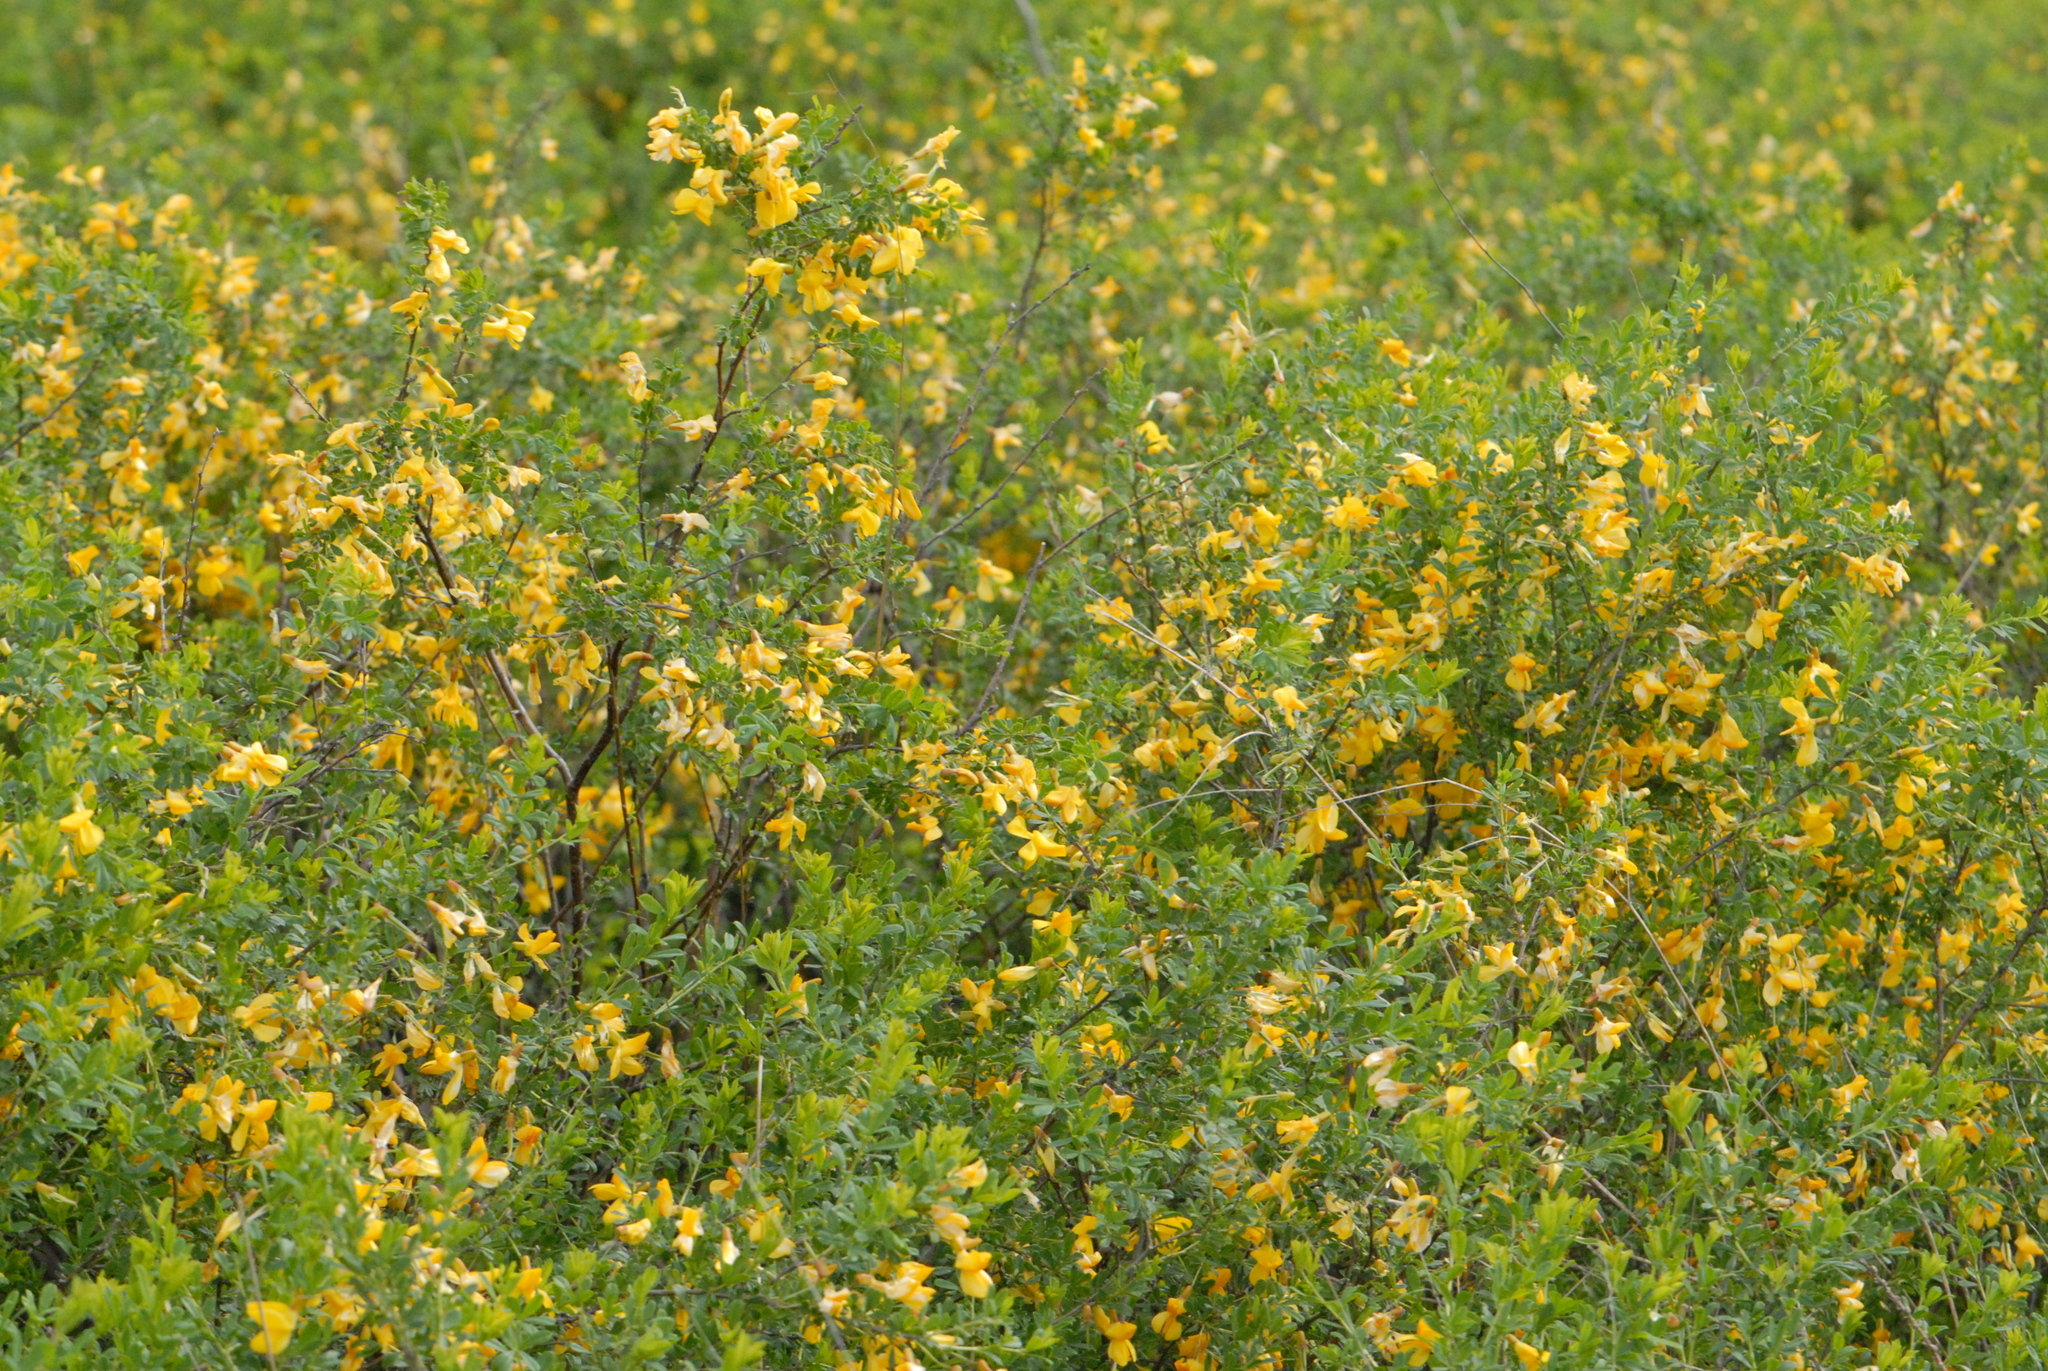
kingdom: Plantae
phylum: Tracheophyta
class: Magnoliopsida
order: Fabales
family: Fabaceae
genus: Caragana
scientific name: Caragana frutex
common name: Russian peashrub
